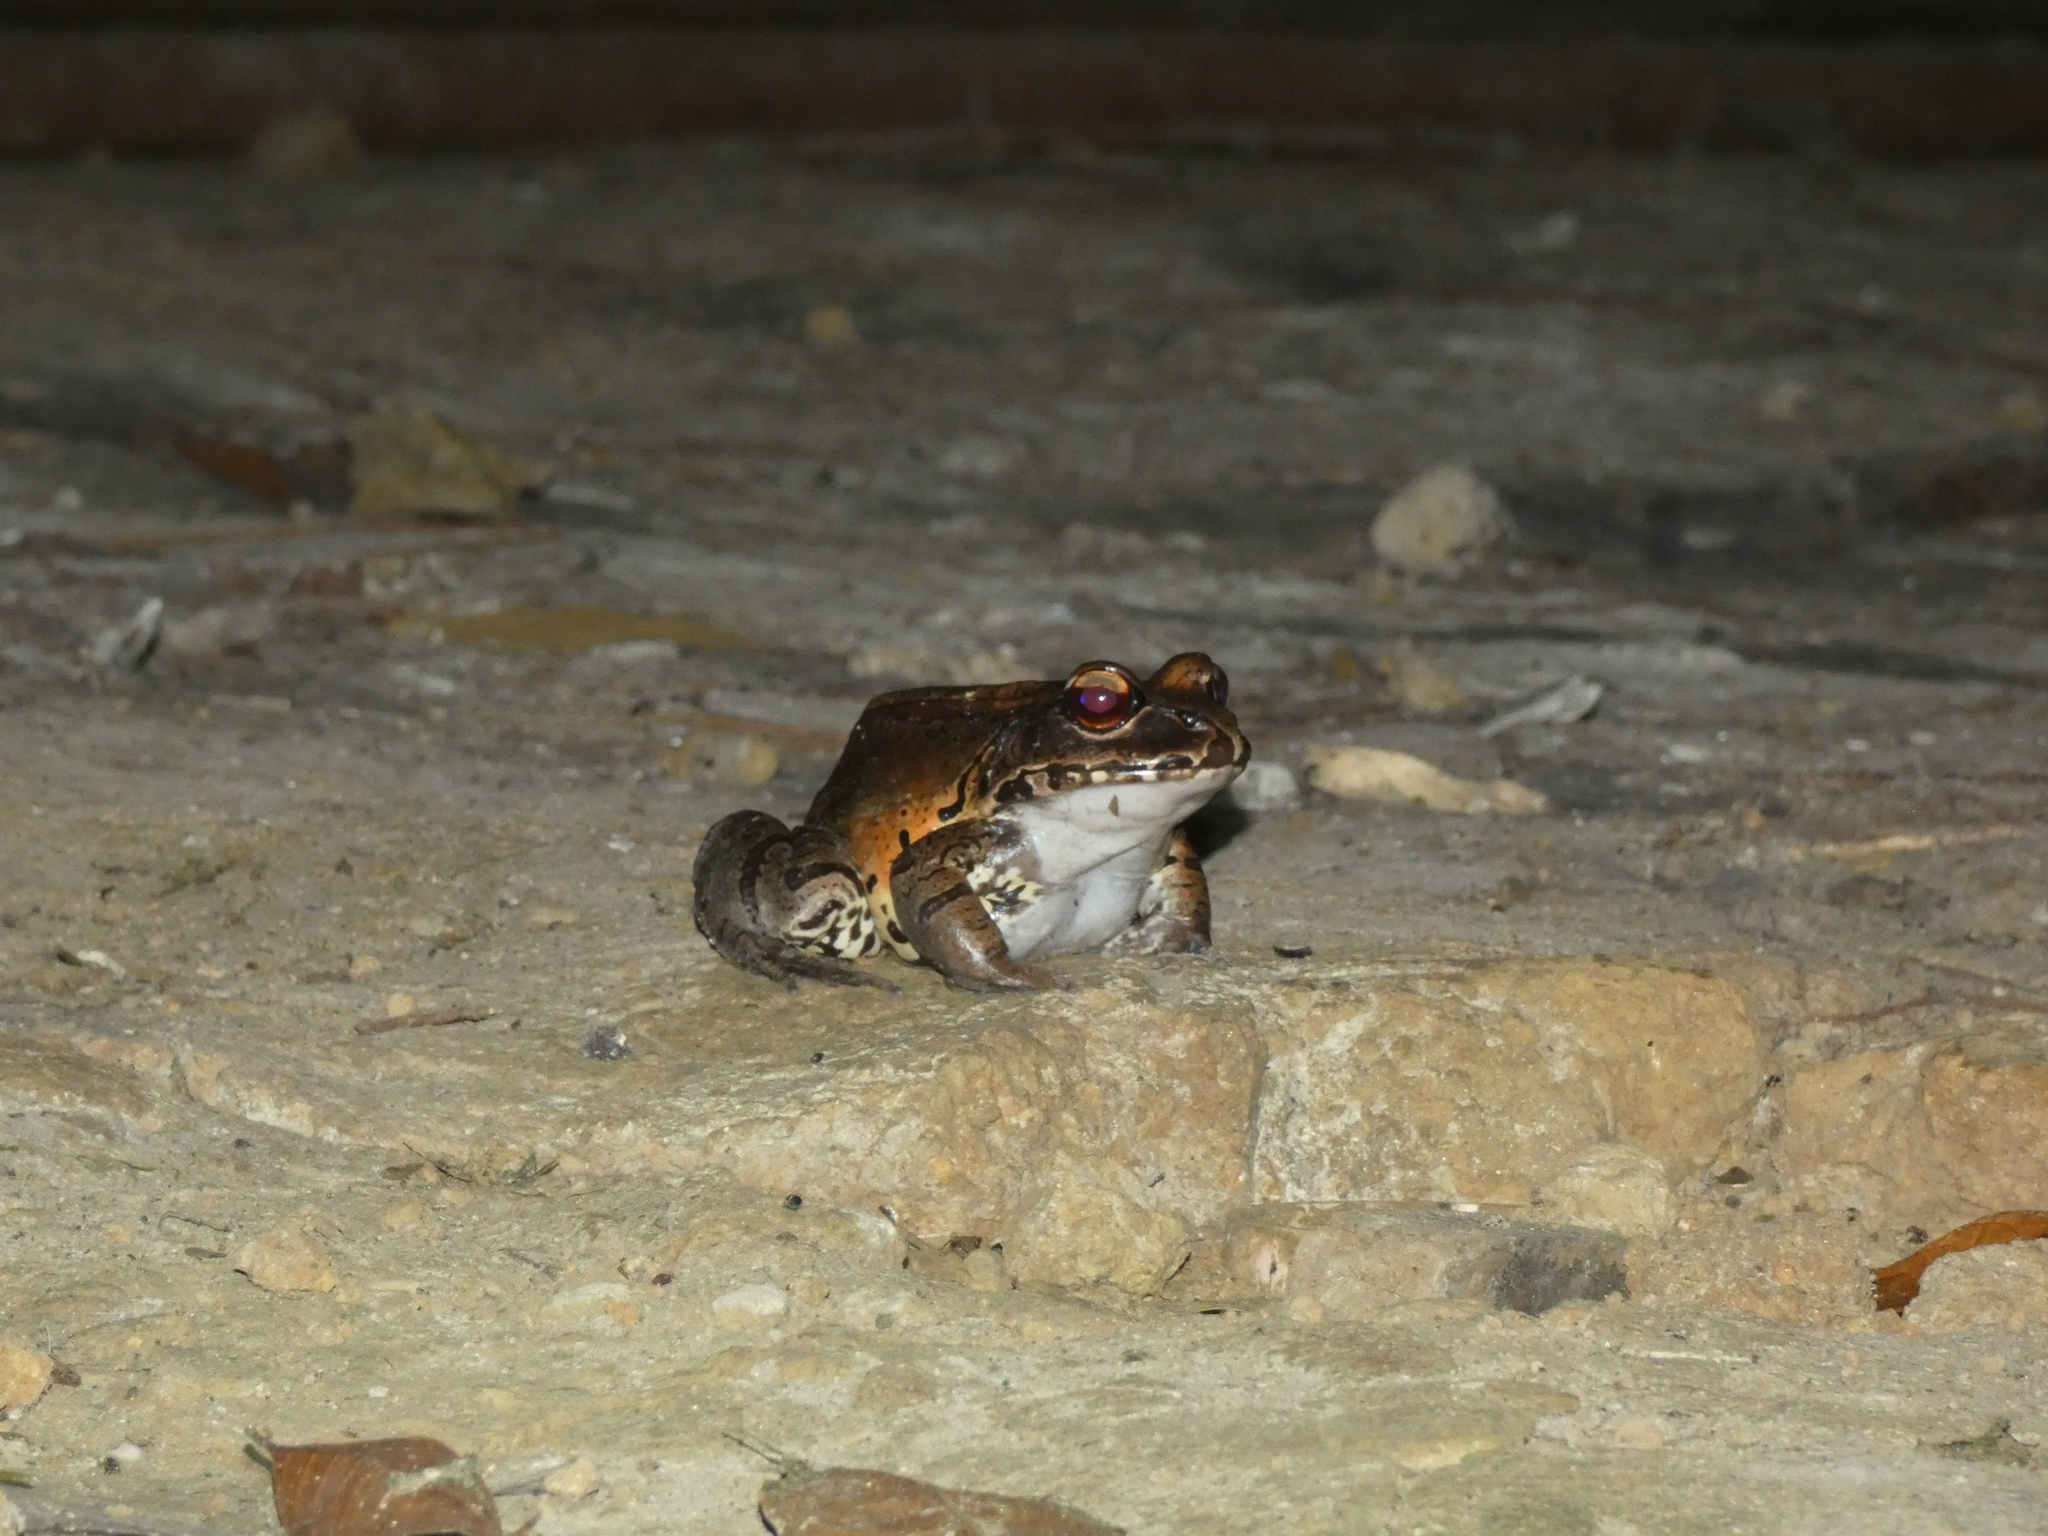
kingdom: Animalia
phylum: Chordata
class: Amphibia
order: Anura
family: Leptodactylidae
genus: Leptodactylus
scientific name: Leptodactylus pentadactylus
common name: Smoky jungle frog
